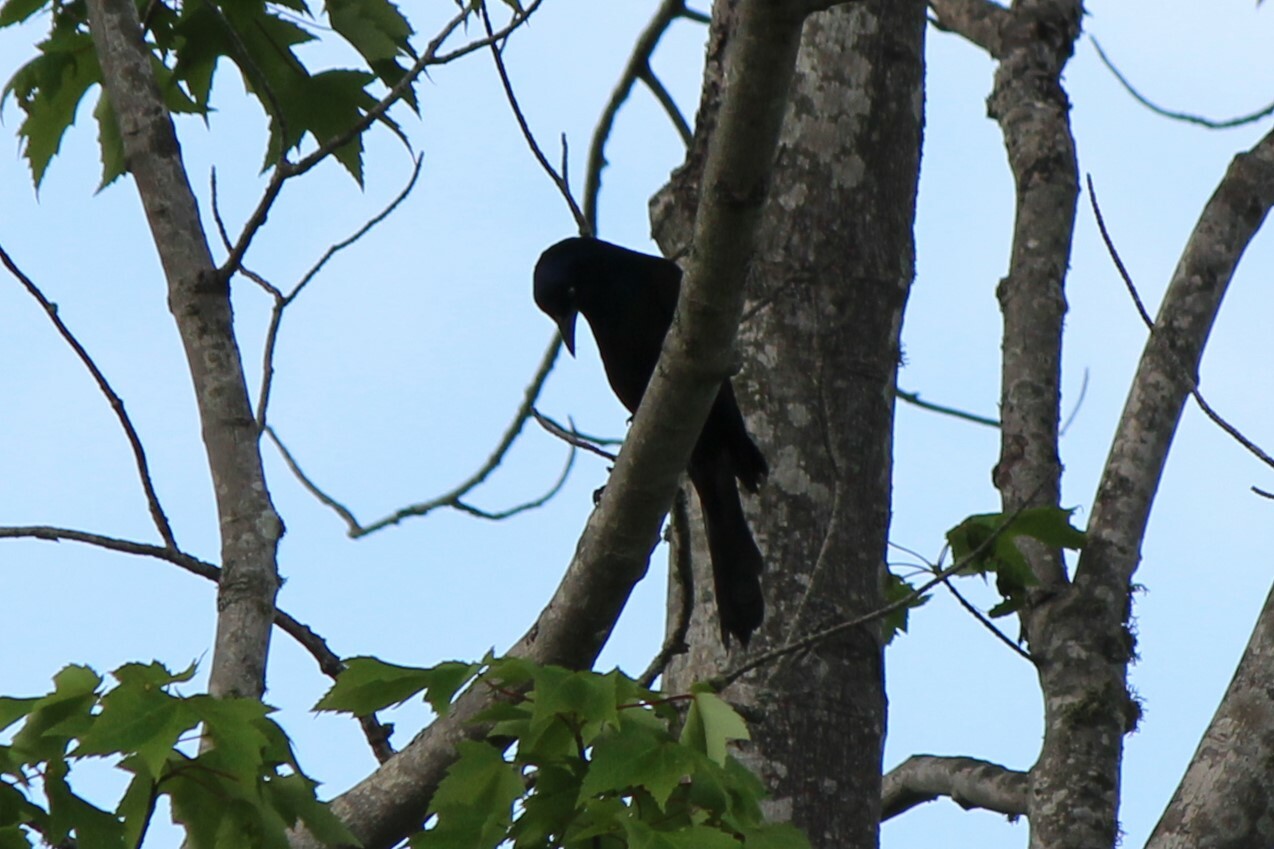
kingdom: Animalia
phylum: Chordata
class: Aves
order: Passeriformes
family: Icteridae
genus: Quiscalus
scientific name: Quiscalus quiscula
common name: Common grackle
